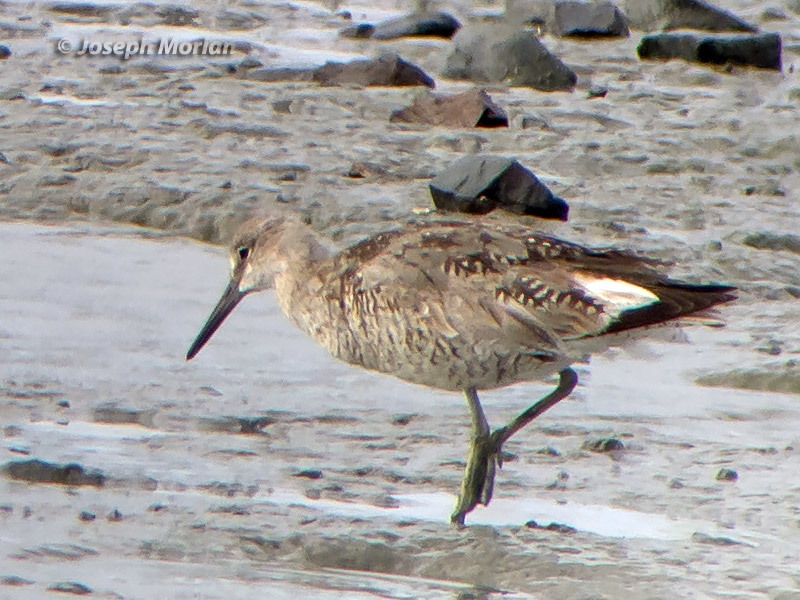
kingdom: Animalia
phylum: Chordata
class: Aves
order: Charadriiformes
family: Scolopacidae
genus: Tringa
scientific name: Tringa semipalmata
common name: Willet
